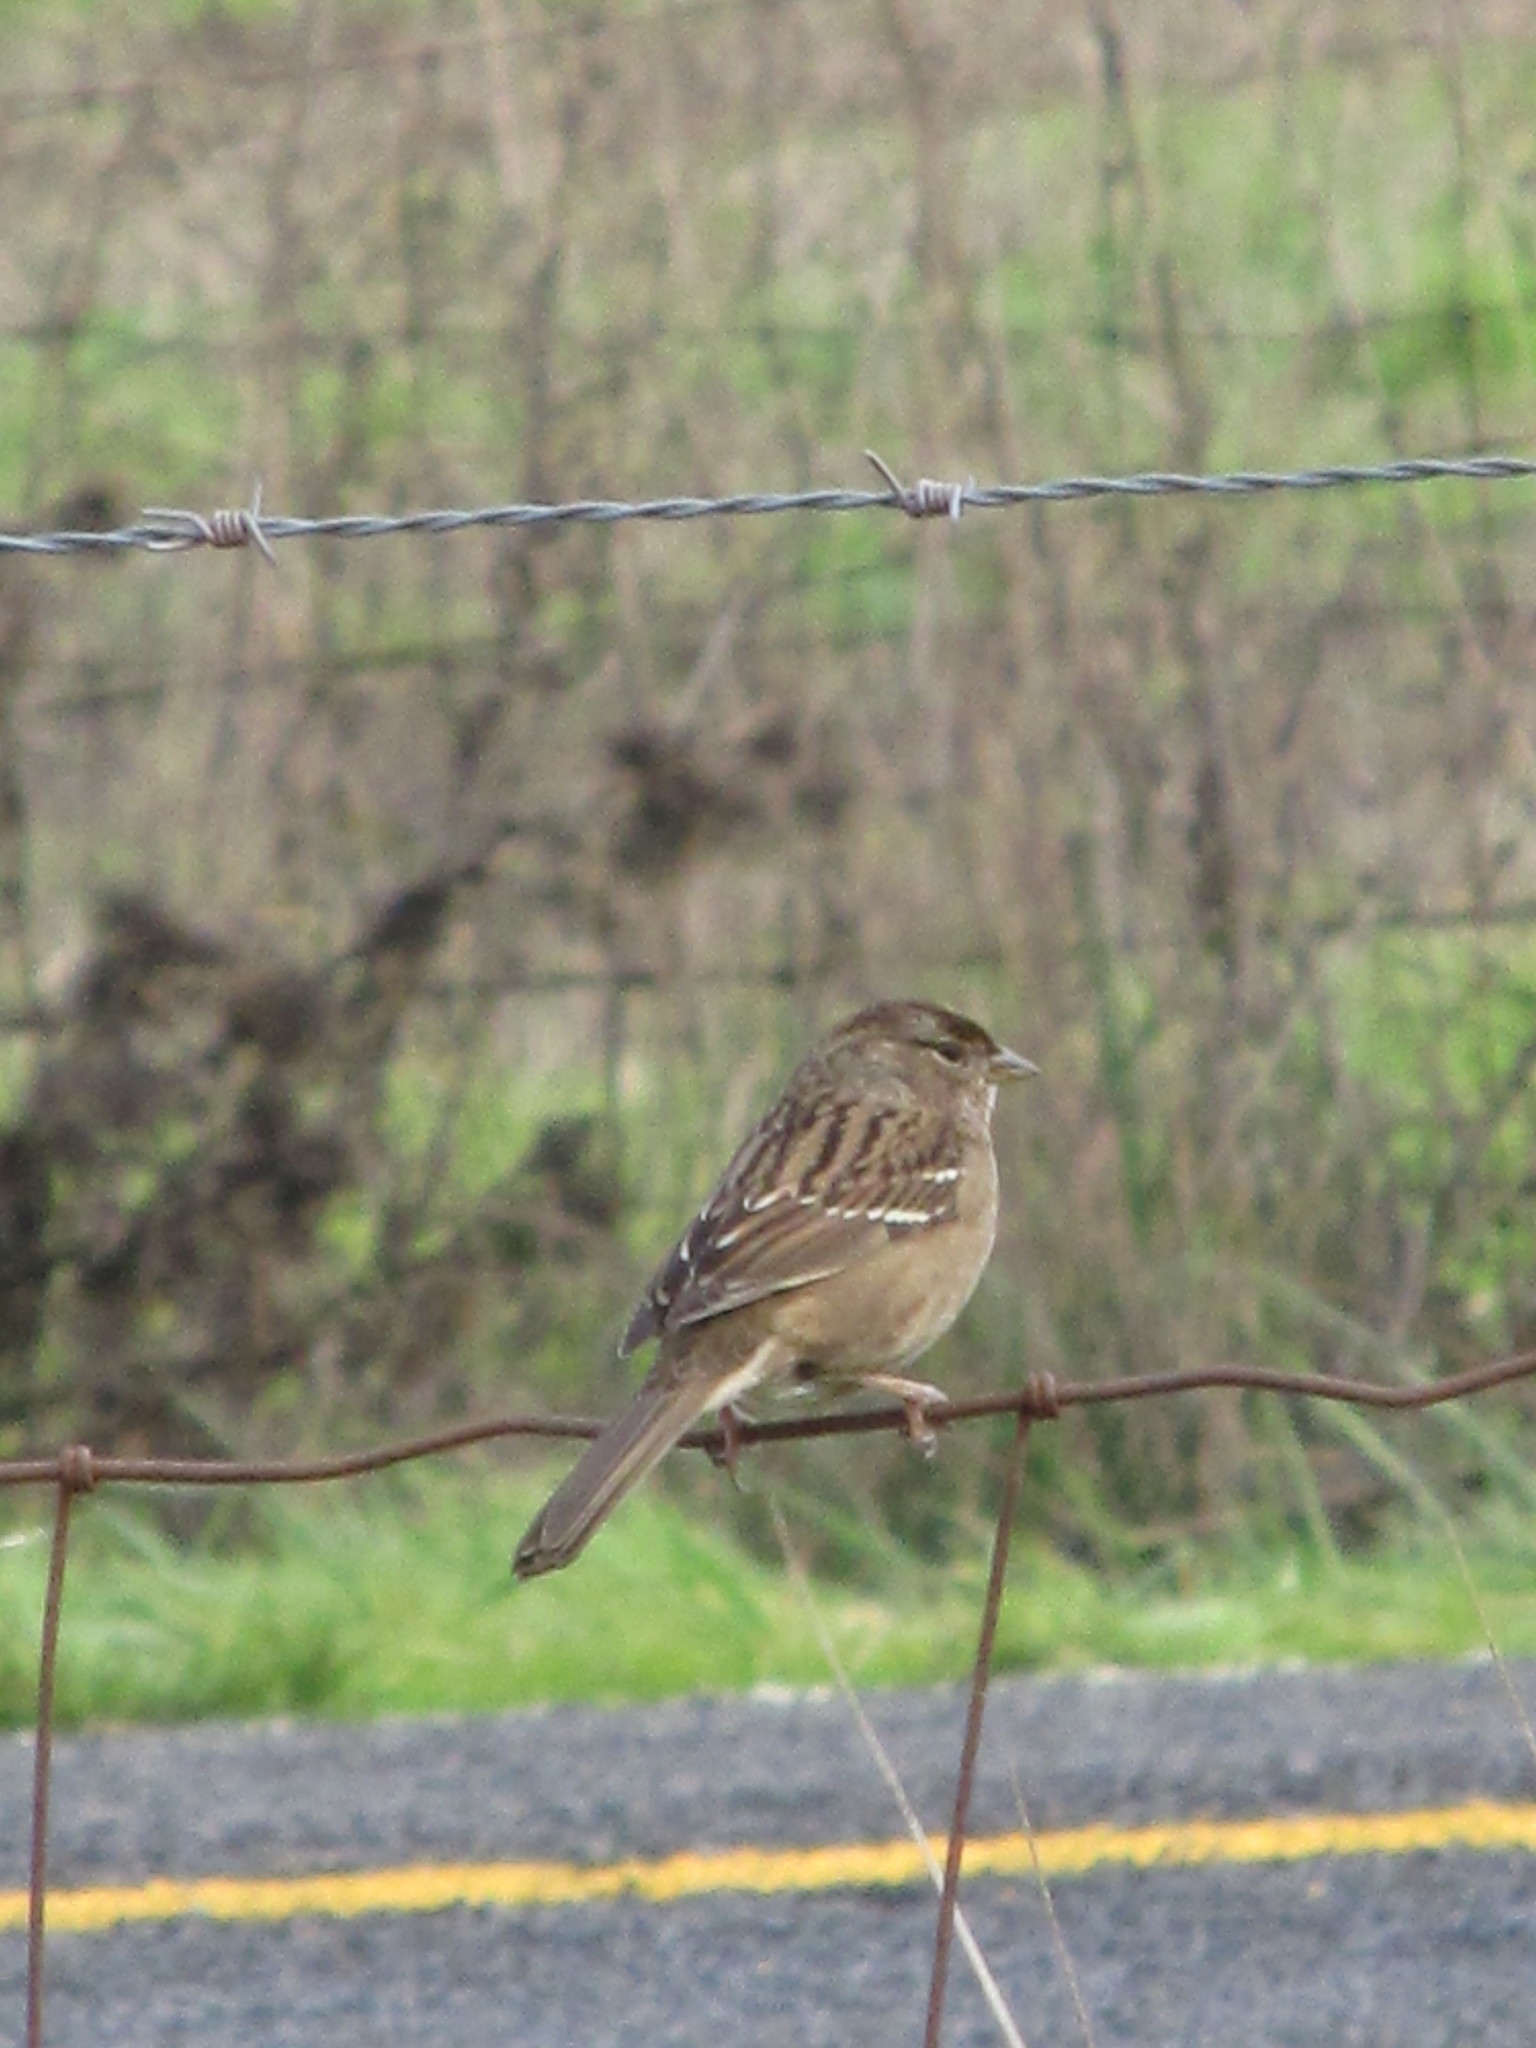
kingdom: Animalia
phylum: Chordata
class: Aves
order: Passeriformes
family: Passerellidae
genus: Zonotrichia
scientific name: Zonotrichia atricapilla
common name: Golden-crowned sparrow
